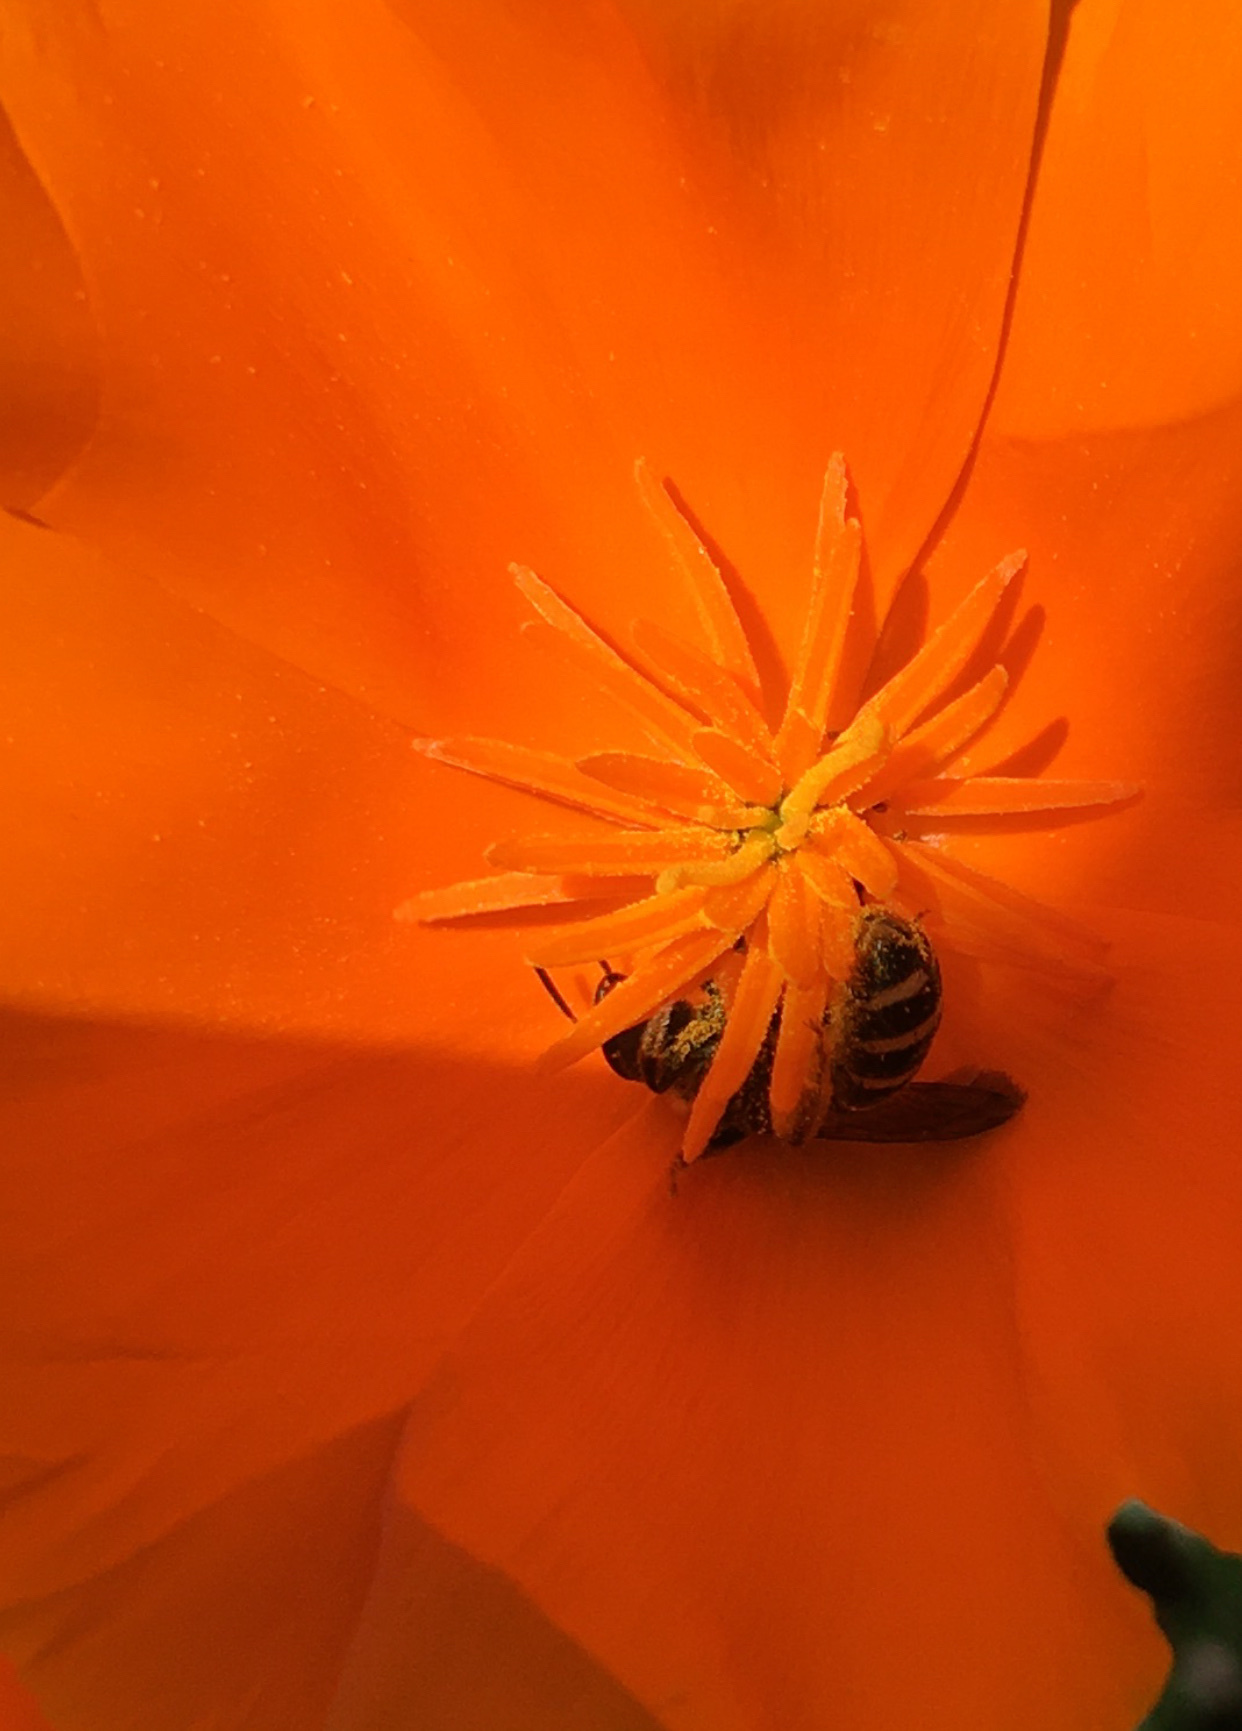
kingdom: Animalia
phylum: Arthropoda
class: Insecta
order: Hymenoptera
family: Halictidae
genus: Halictus
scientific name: Halictus farinosus
